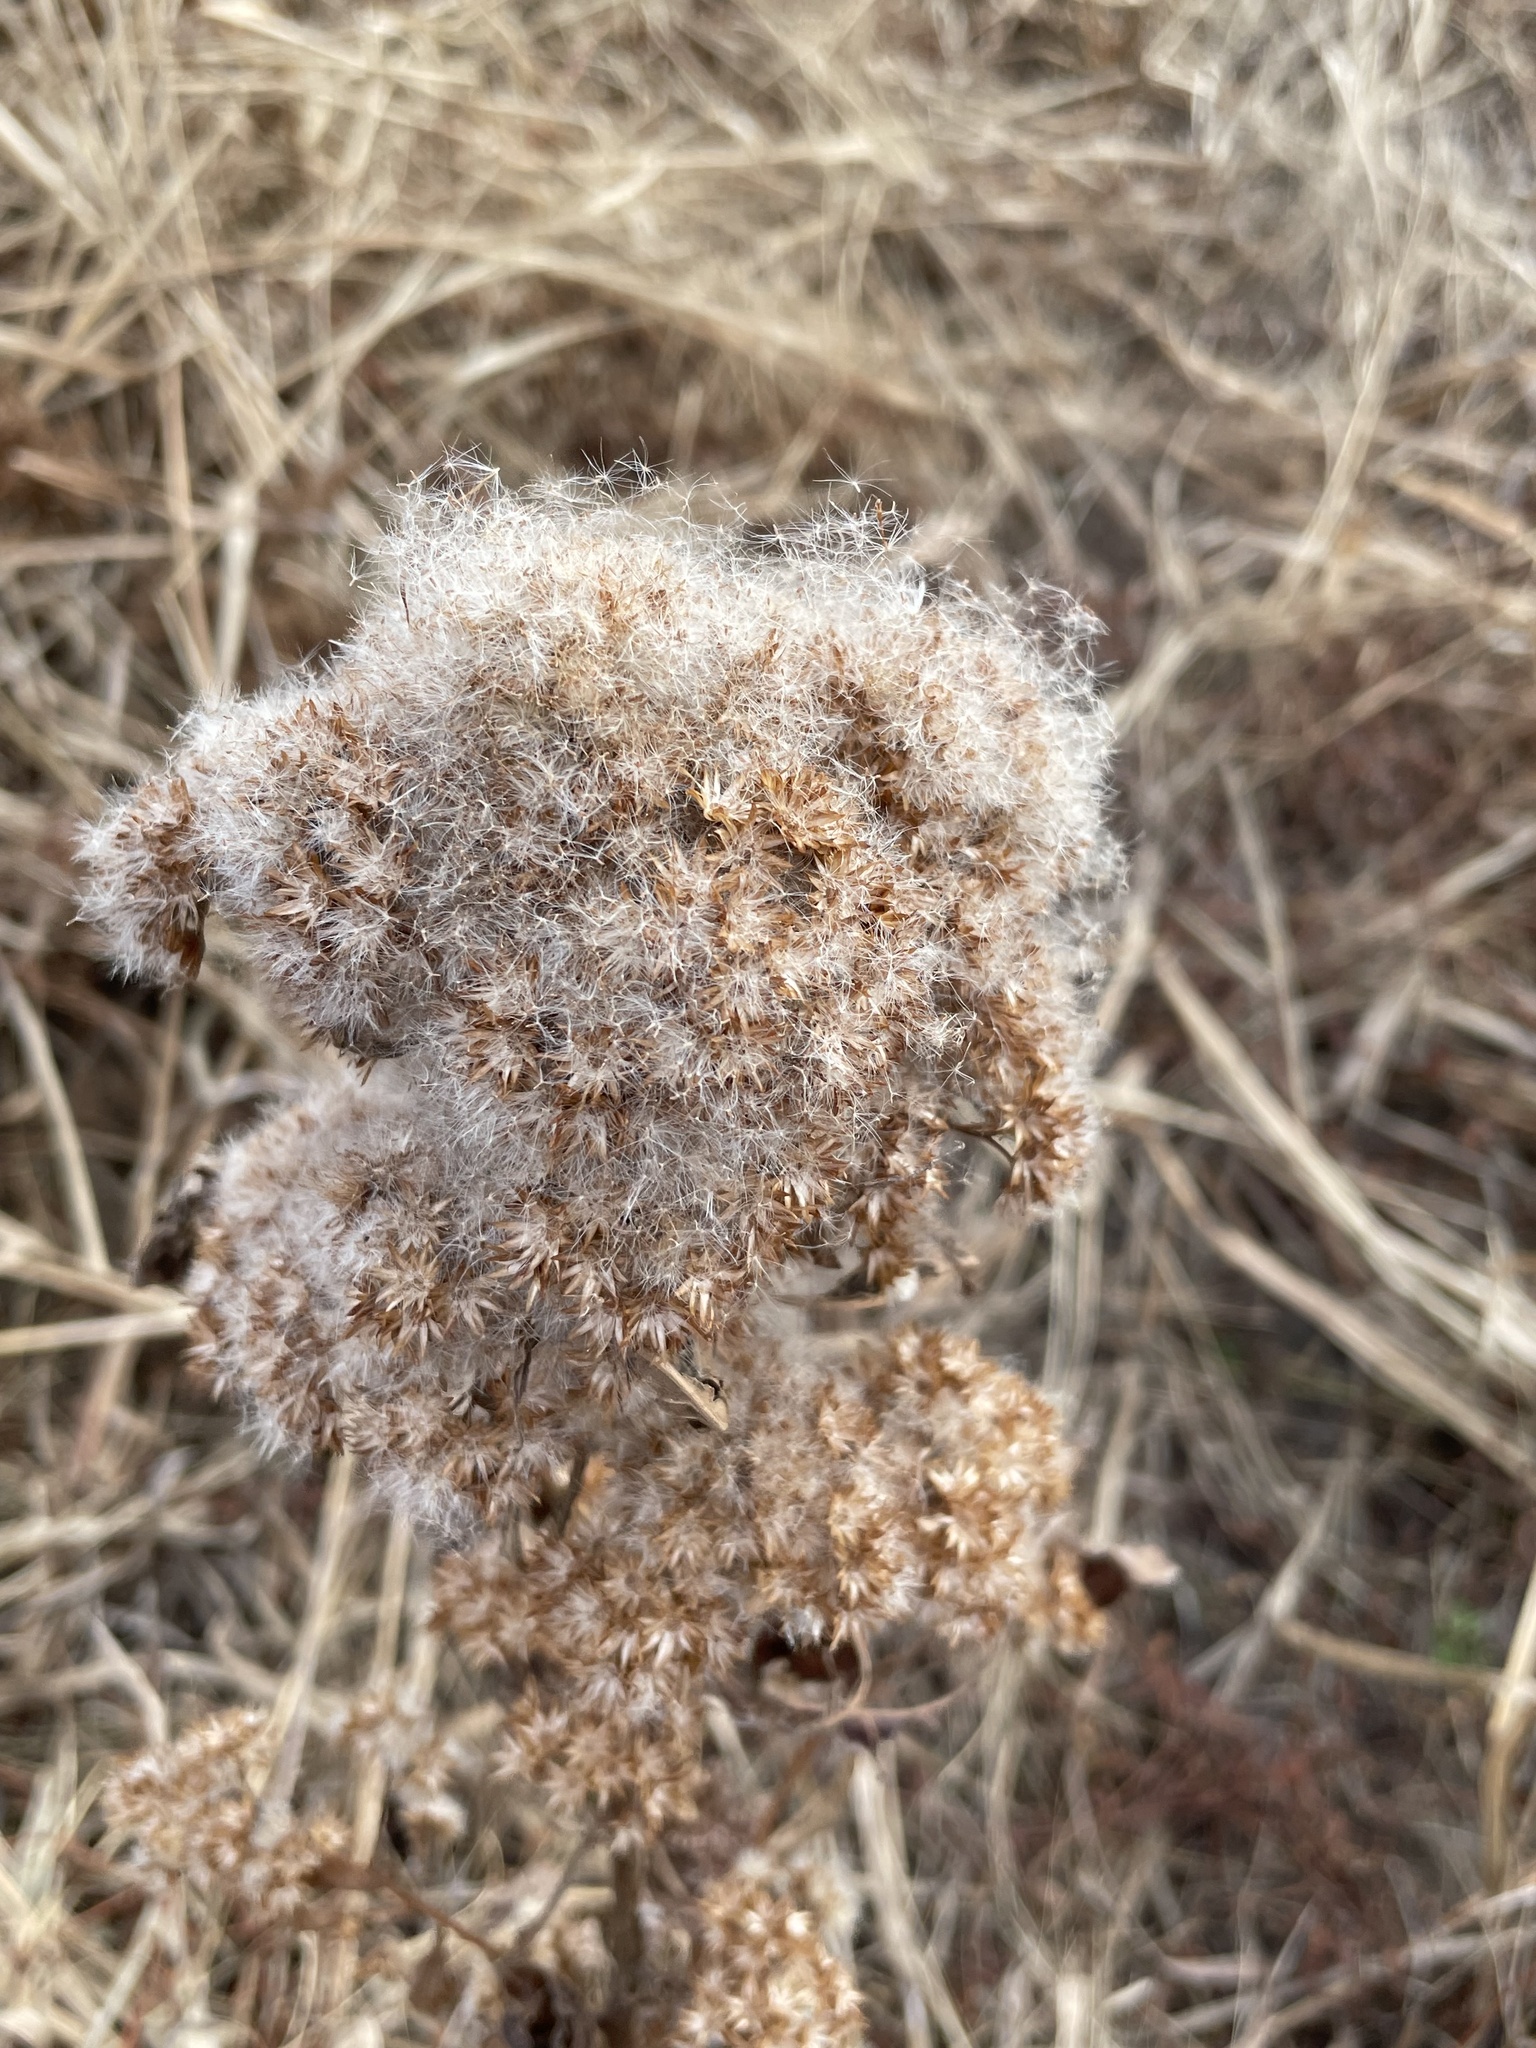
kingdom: Plantae
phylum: Tracheophyta
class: Magnoliopsida
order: Asterales
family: Asteraceae
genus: Pluchea
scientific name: Pluchea camphorata
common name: Camphor pluchea
